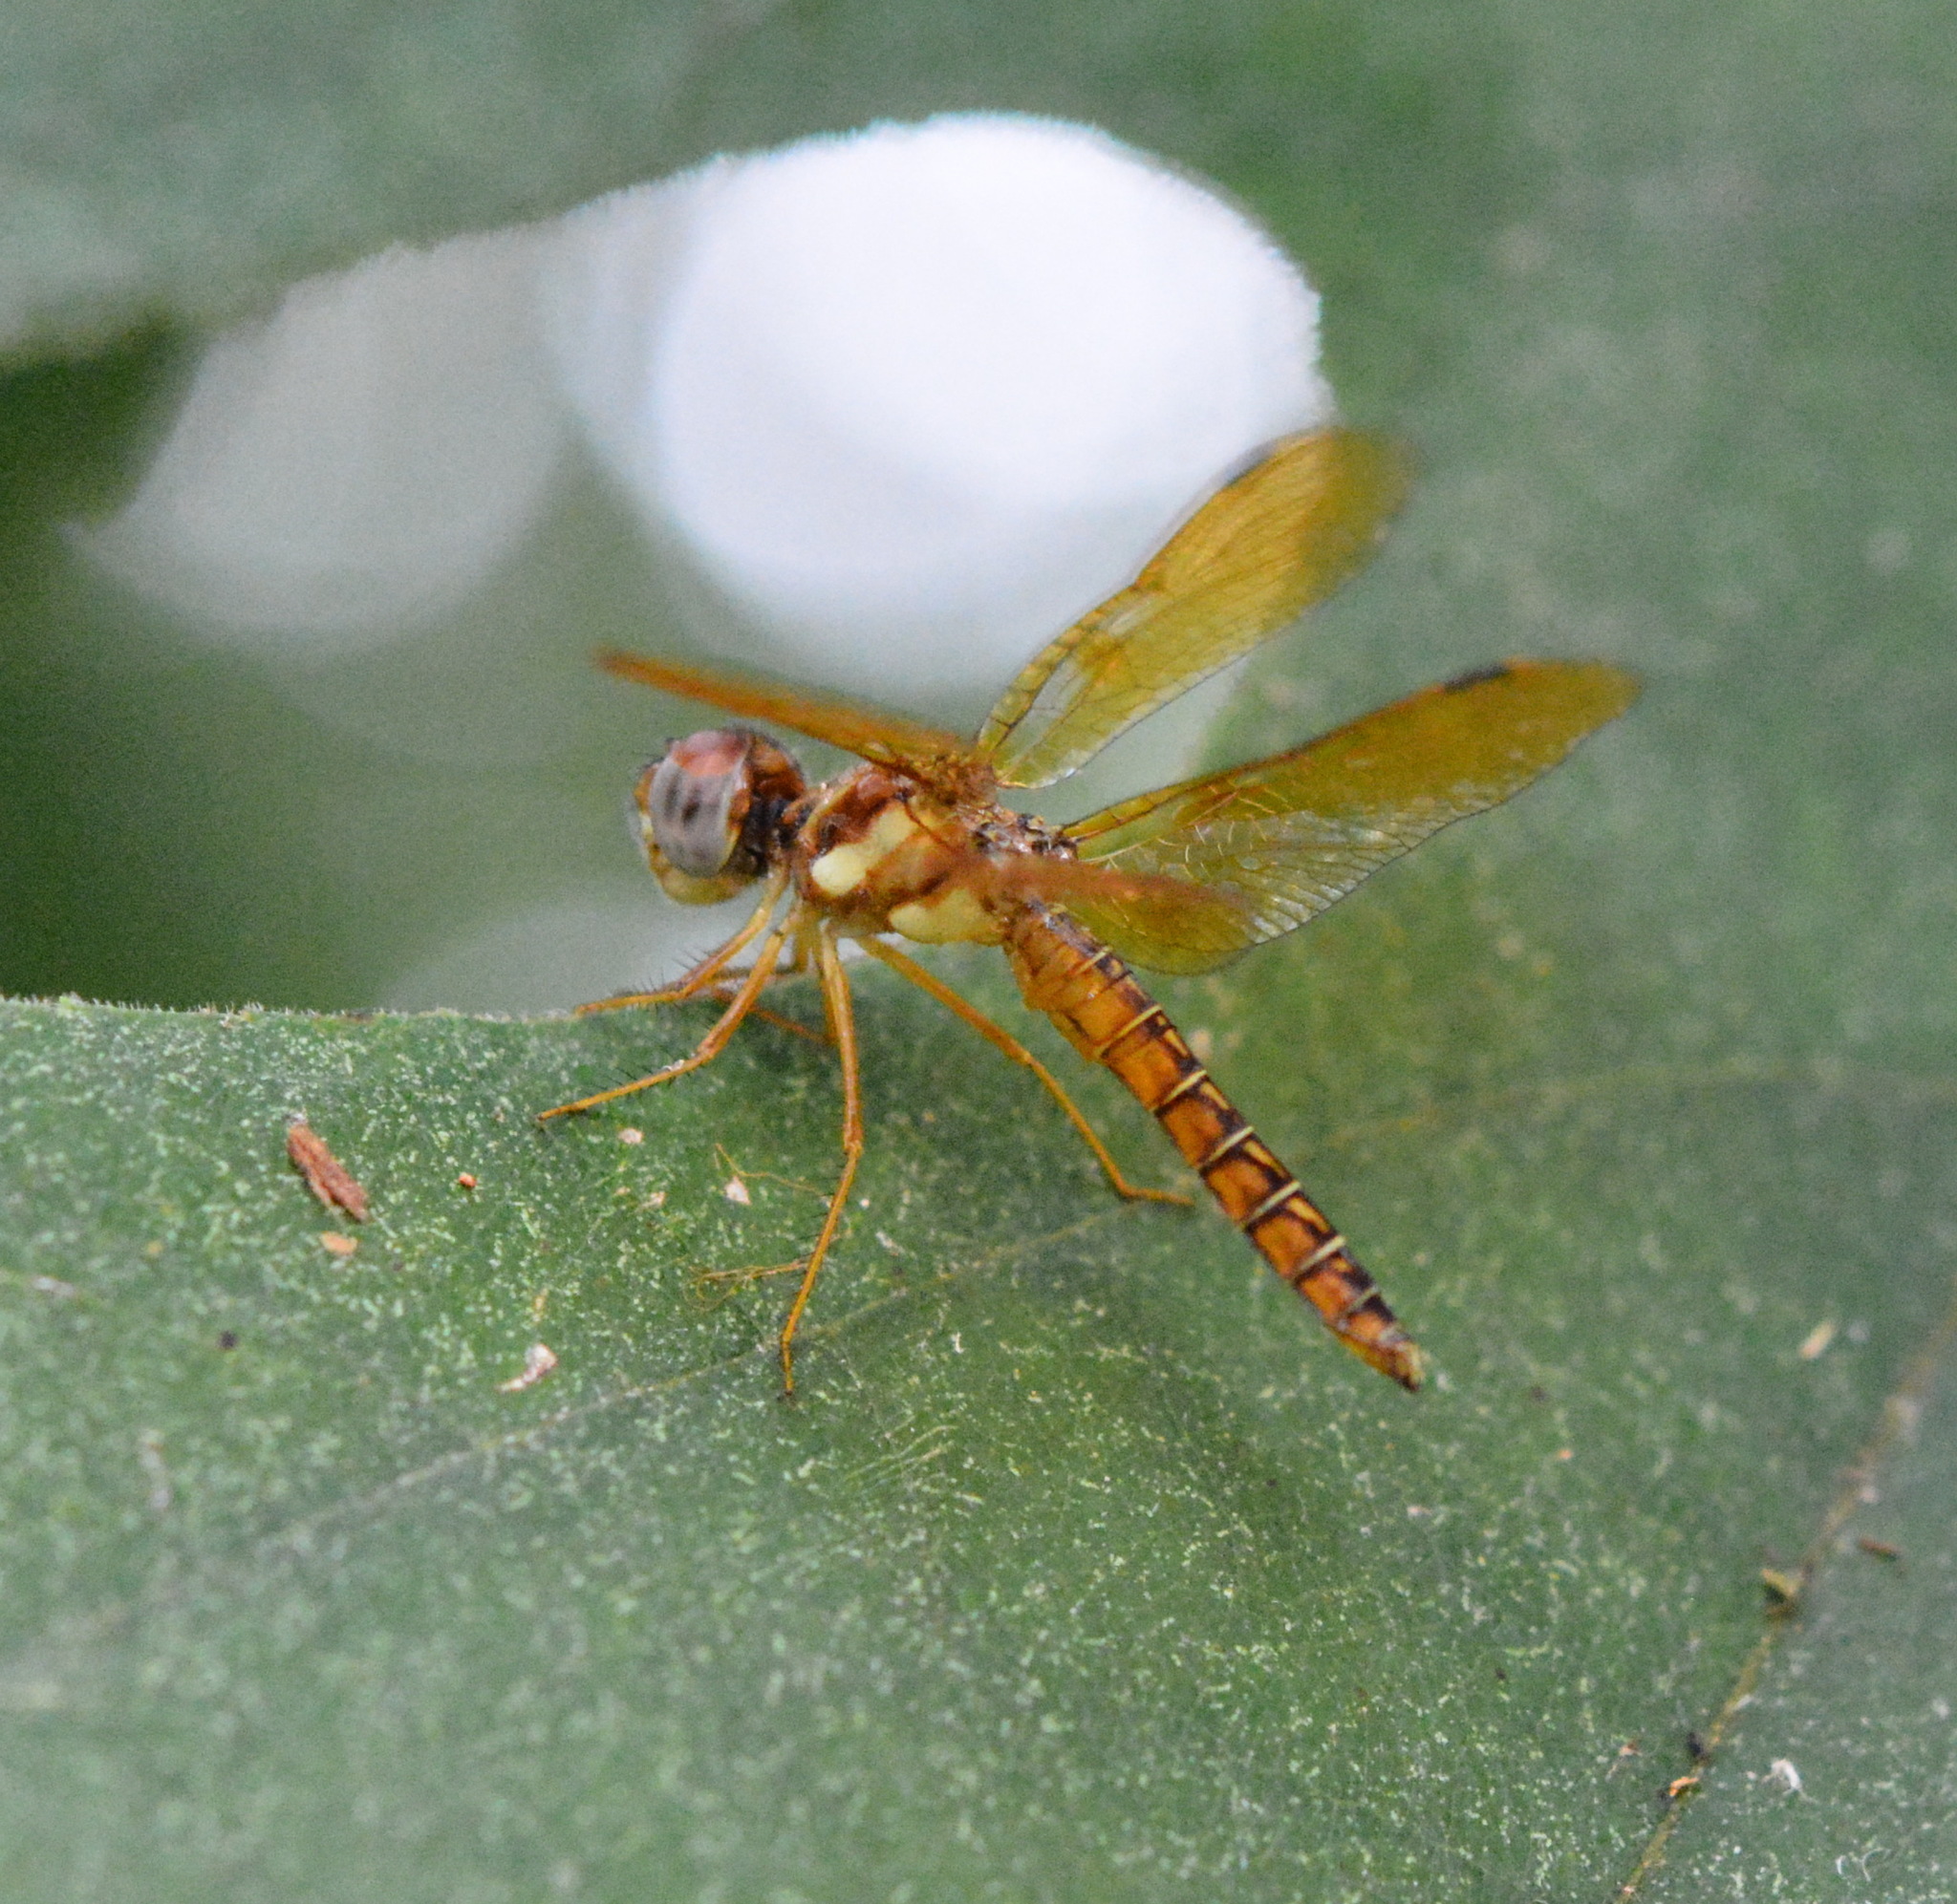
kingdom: Animalia
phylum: Arthropoda
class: Insecta
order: Odonata
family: Libellulidae
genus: Perithemis
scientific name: Perithemis tenera
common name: Eastern amberwing
